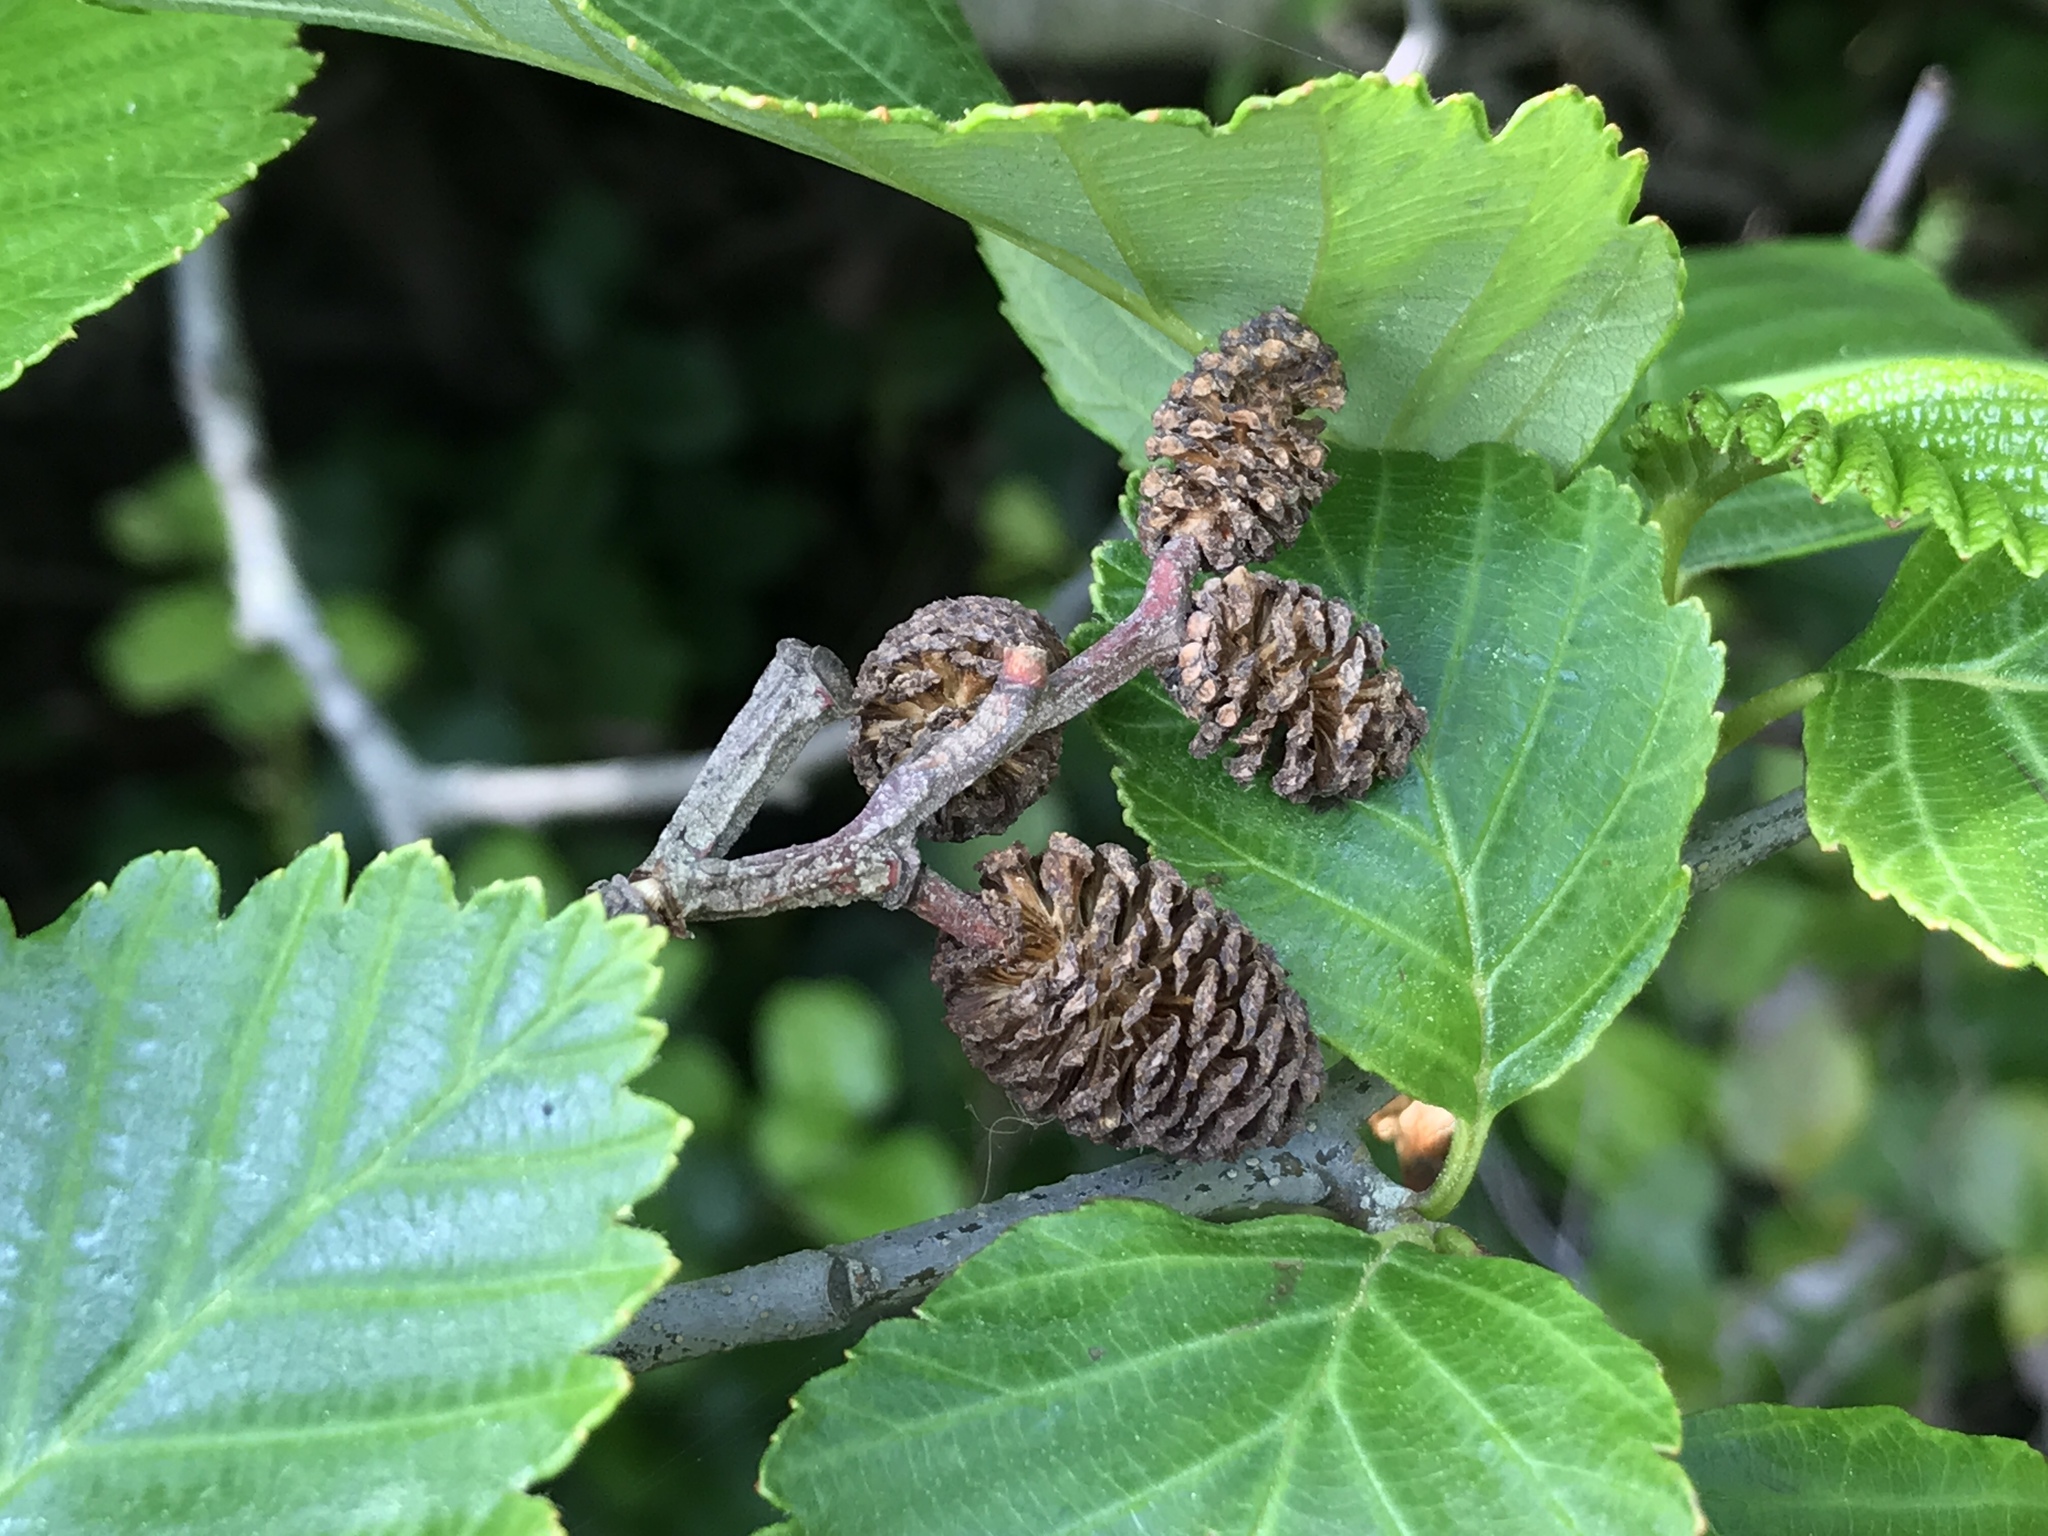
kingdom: Plantae
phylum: Tracheophyta
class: Magnoliopsida
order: Fagales
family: Betulaceae
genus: Alnus
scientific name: Alnus rubra
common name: Red alder
